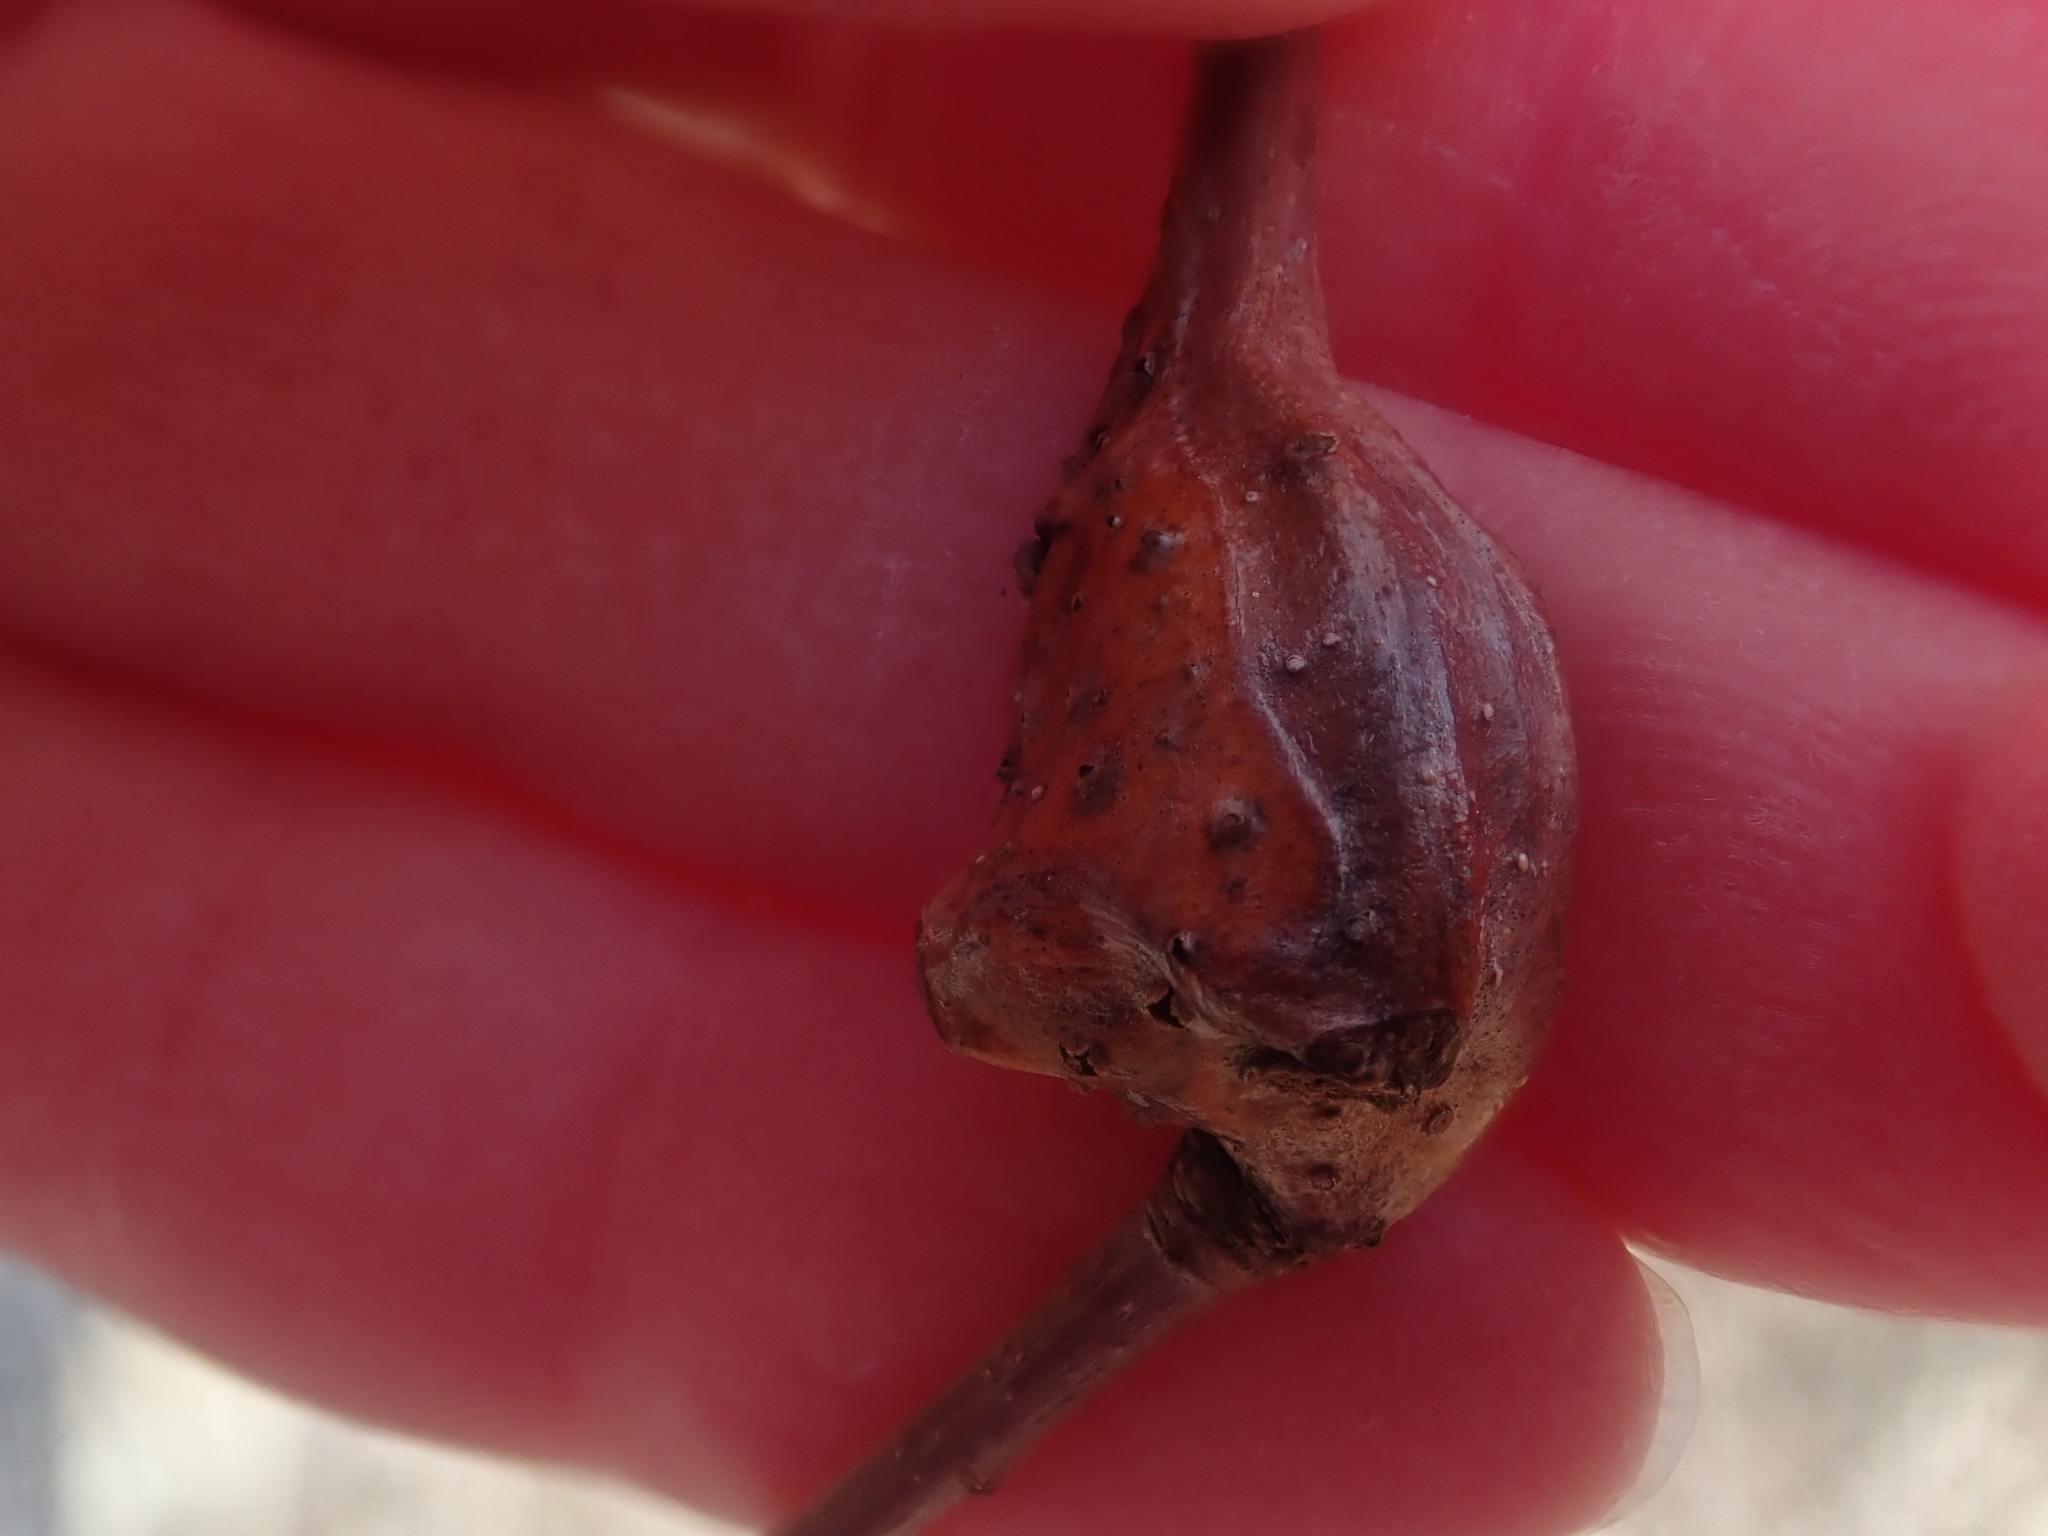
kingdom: Animalia
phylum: Arthropoda
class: Insecta
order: Hymenoptera
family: Cynipidae
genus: Callirhytis
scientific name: Callirhytis clavula
